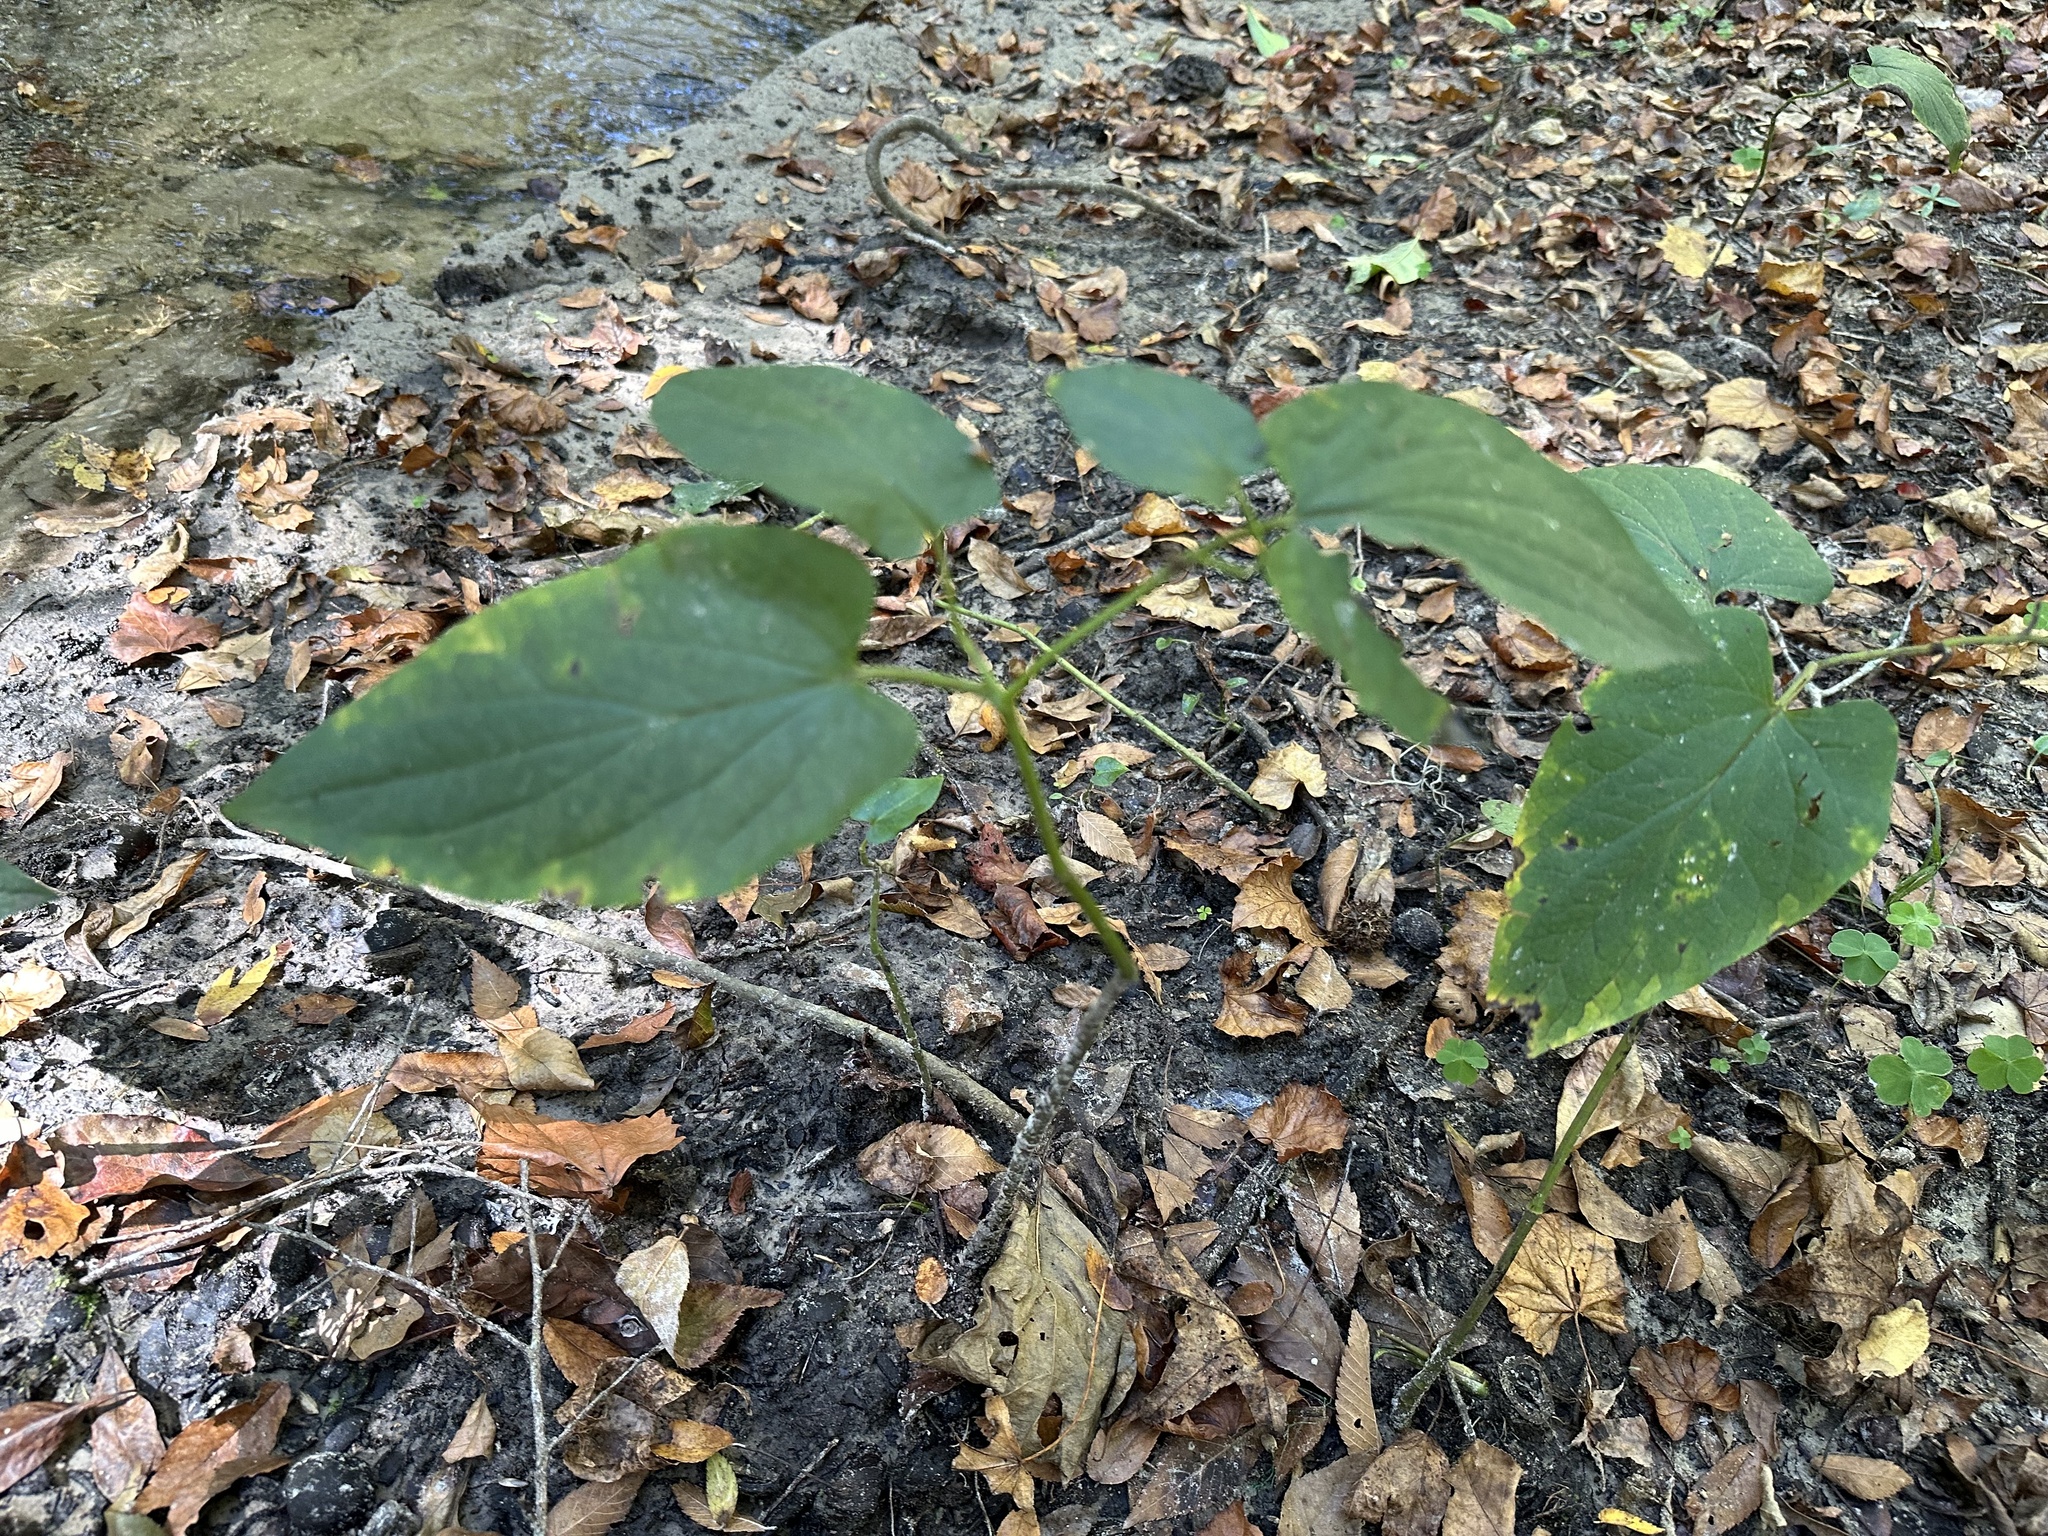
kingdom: Plantae
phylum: Tracheophyta
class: Magnoliopsida
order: Piperales
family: Saururaceae
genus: Saururus
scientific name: Saururus cernuus
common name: Lizard's-tail
